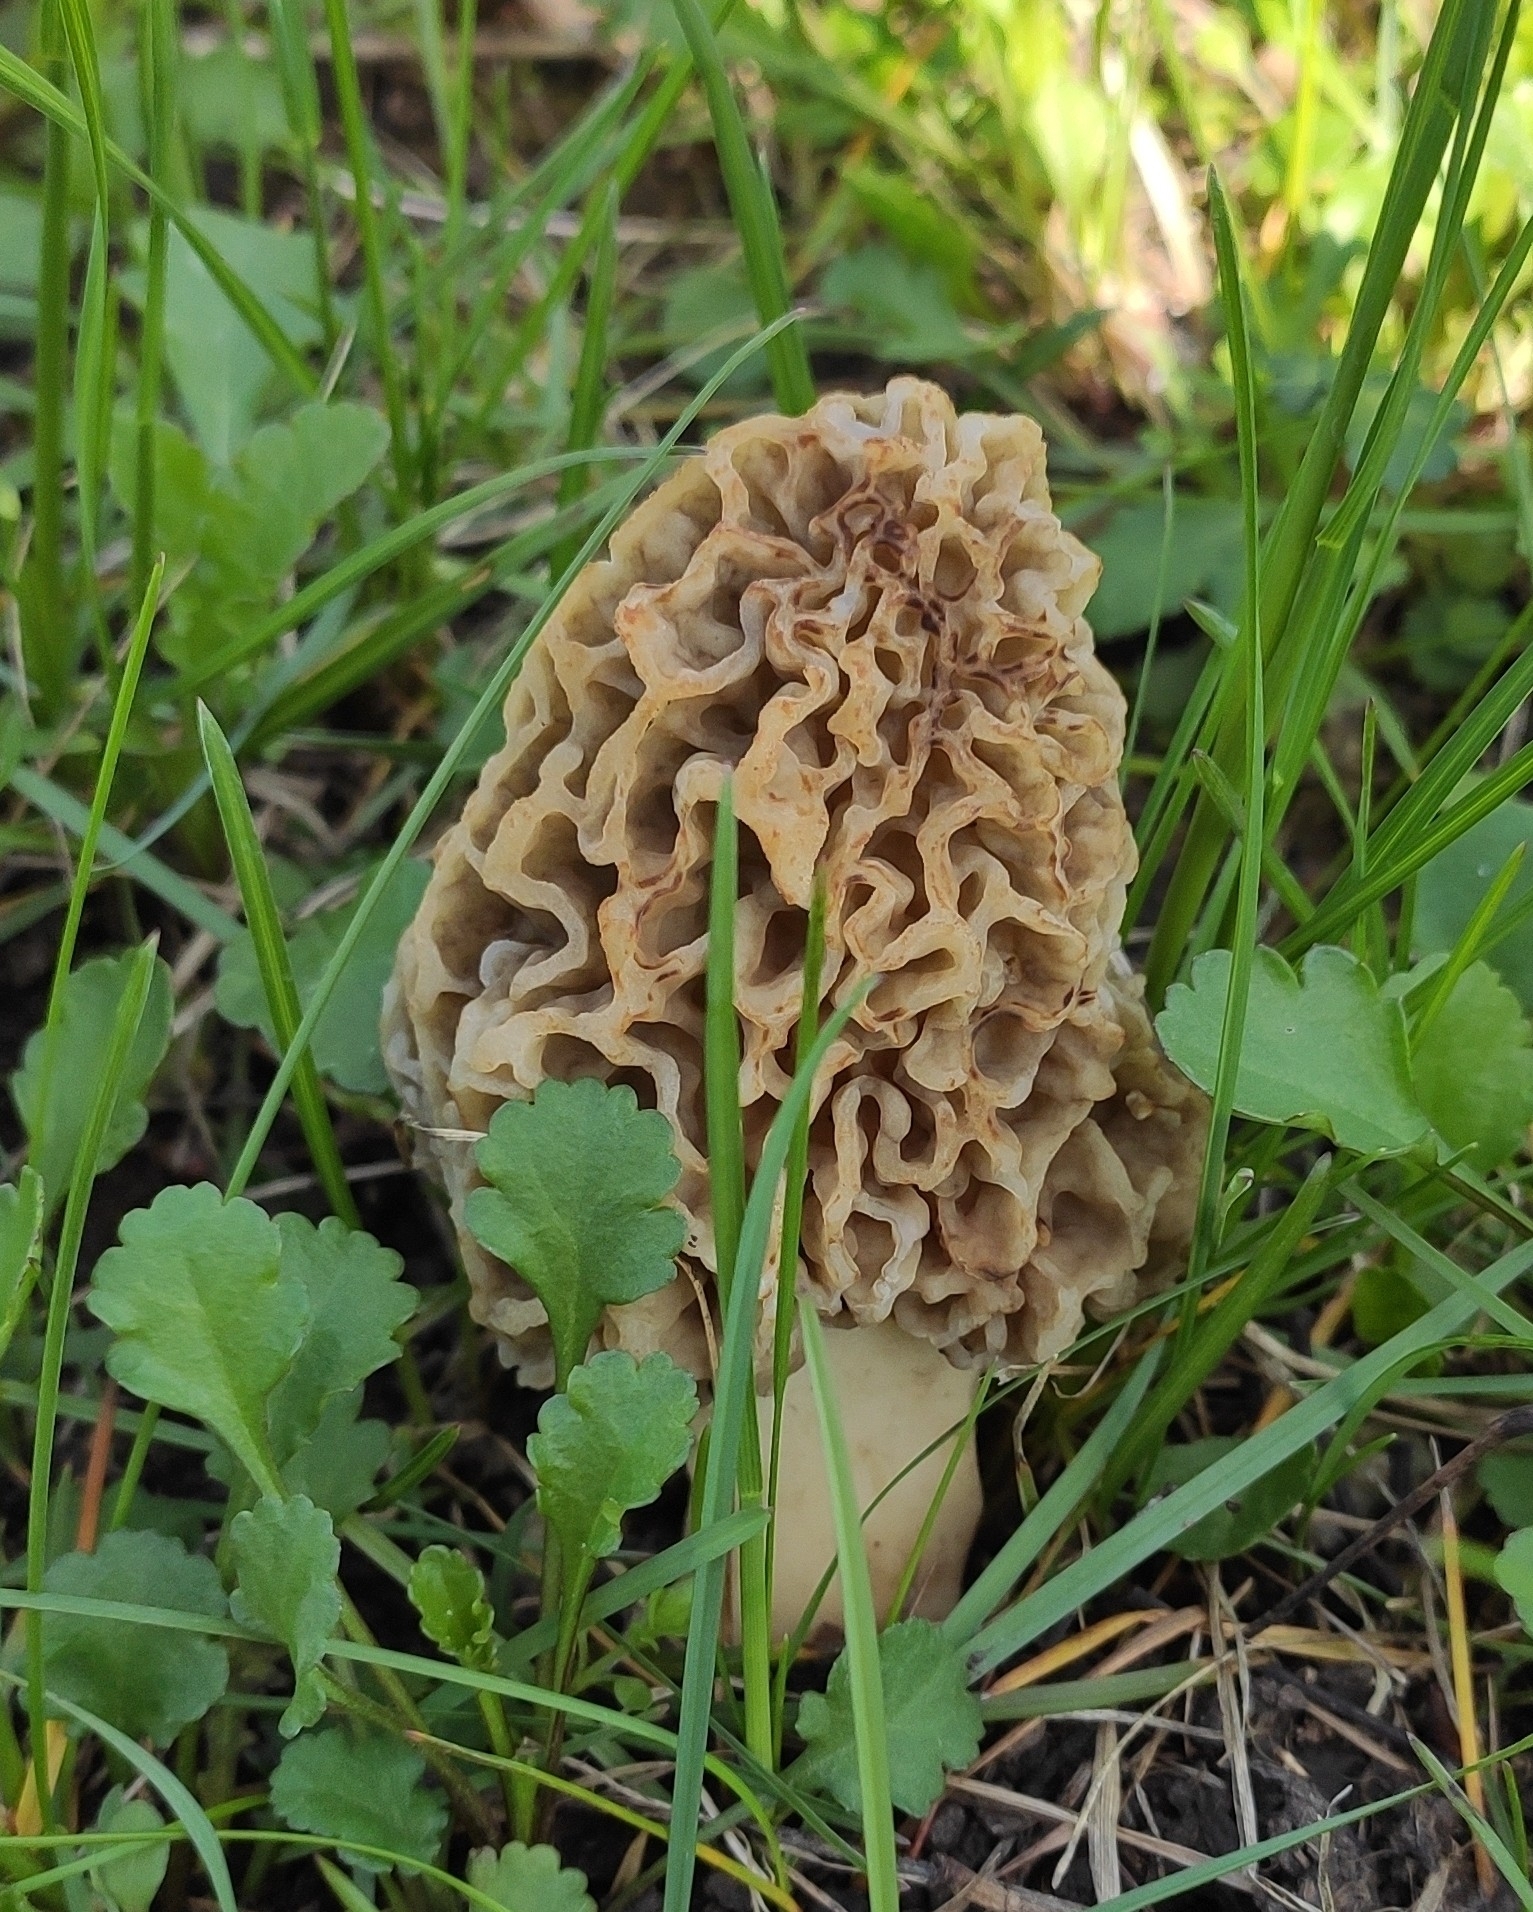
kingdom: Fungi
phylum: Ascomycota
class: Pezizomycetes
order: Pezizales
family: Morchellaceae
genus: Morchella
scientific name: Morchella steppicola
